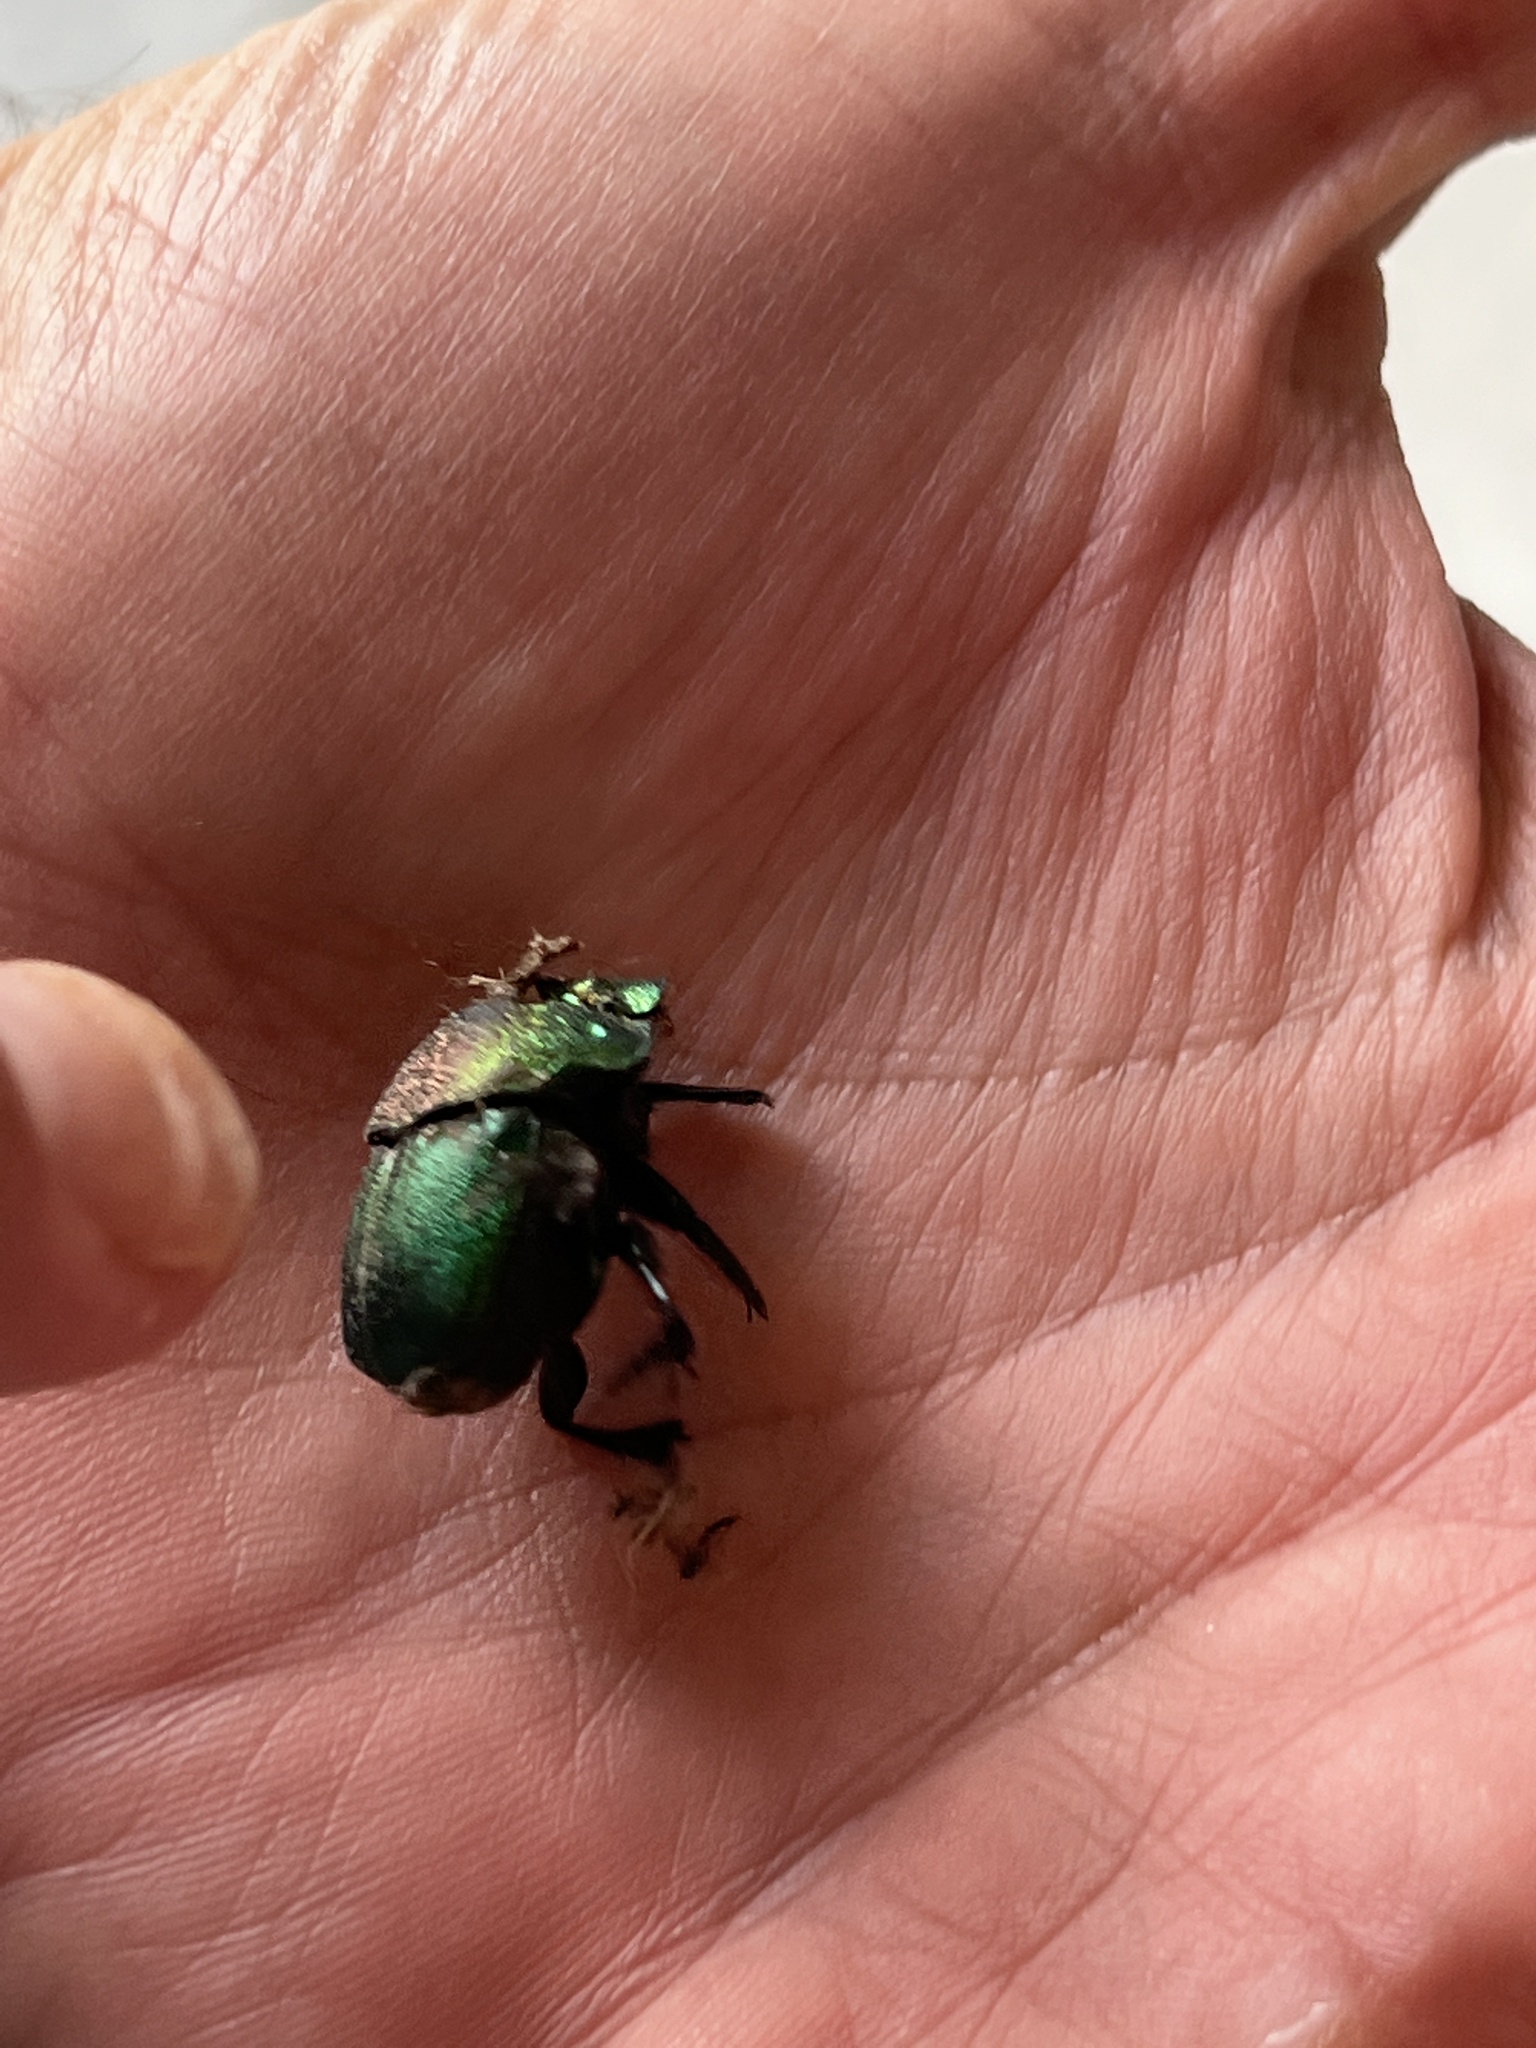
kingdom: Animalia
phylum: Arthropoda
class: Insecta
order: Coleoptera
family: Scarabaeidae
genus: Phanaeus
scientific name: Phanaeus difformis
